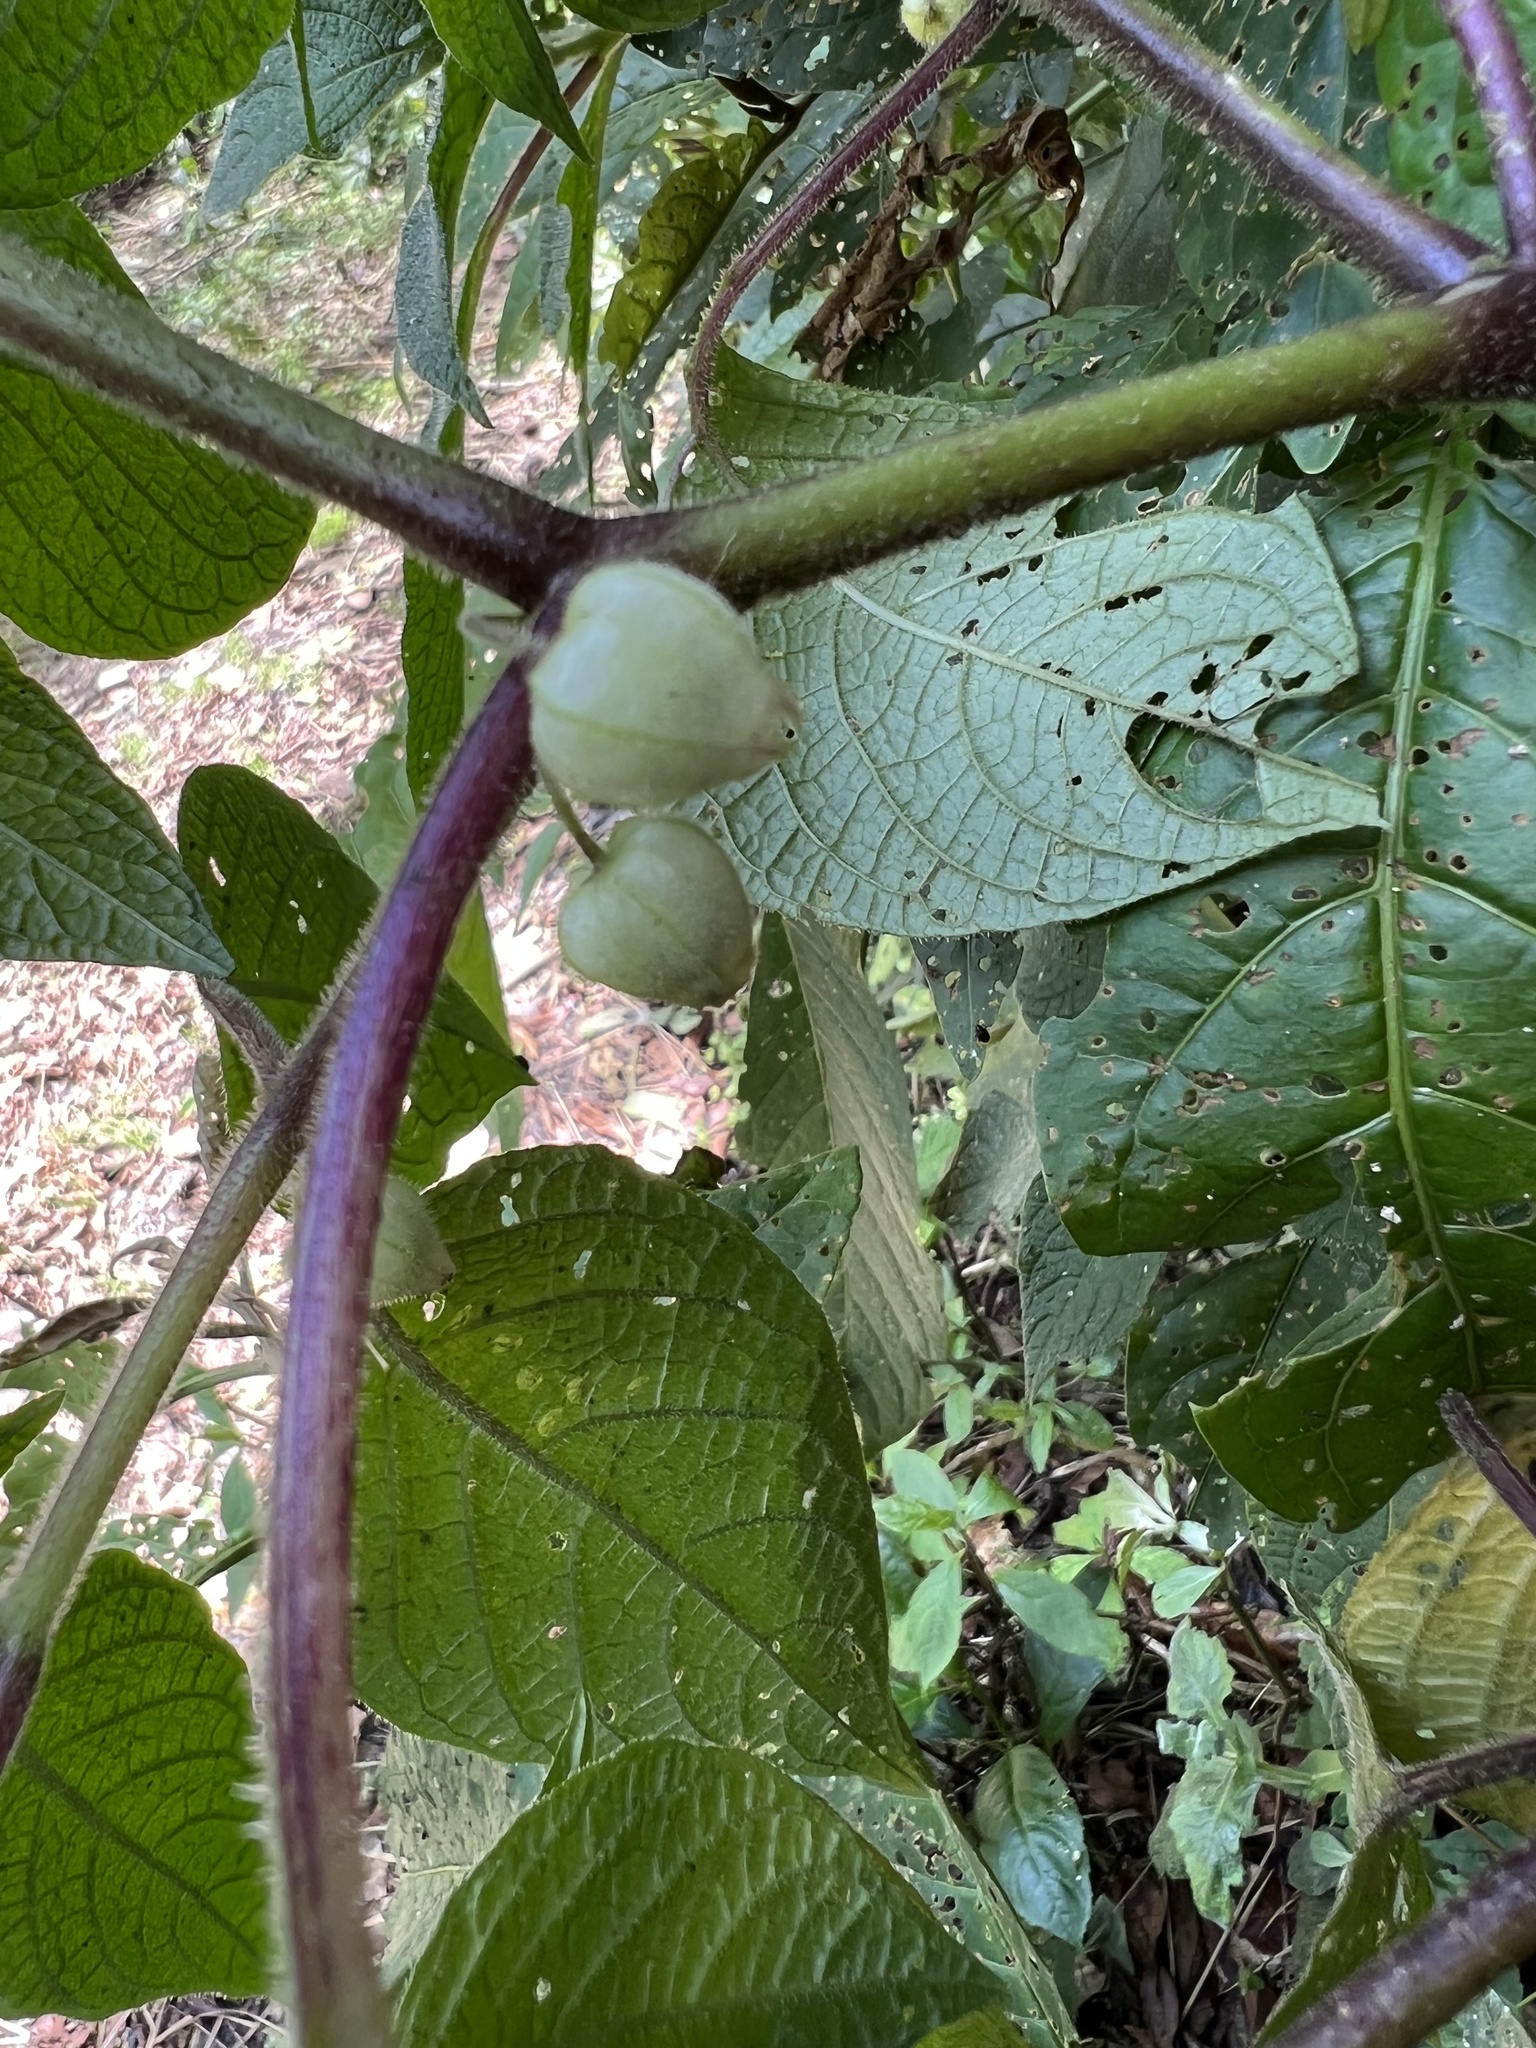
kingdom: Plantae
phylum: Tracheophyta
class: Magnoliopsida
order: Solanales
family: Solanaceae
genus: Deprea
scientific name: Deprea bitteriana
